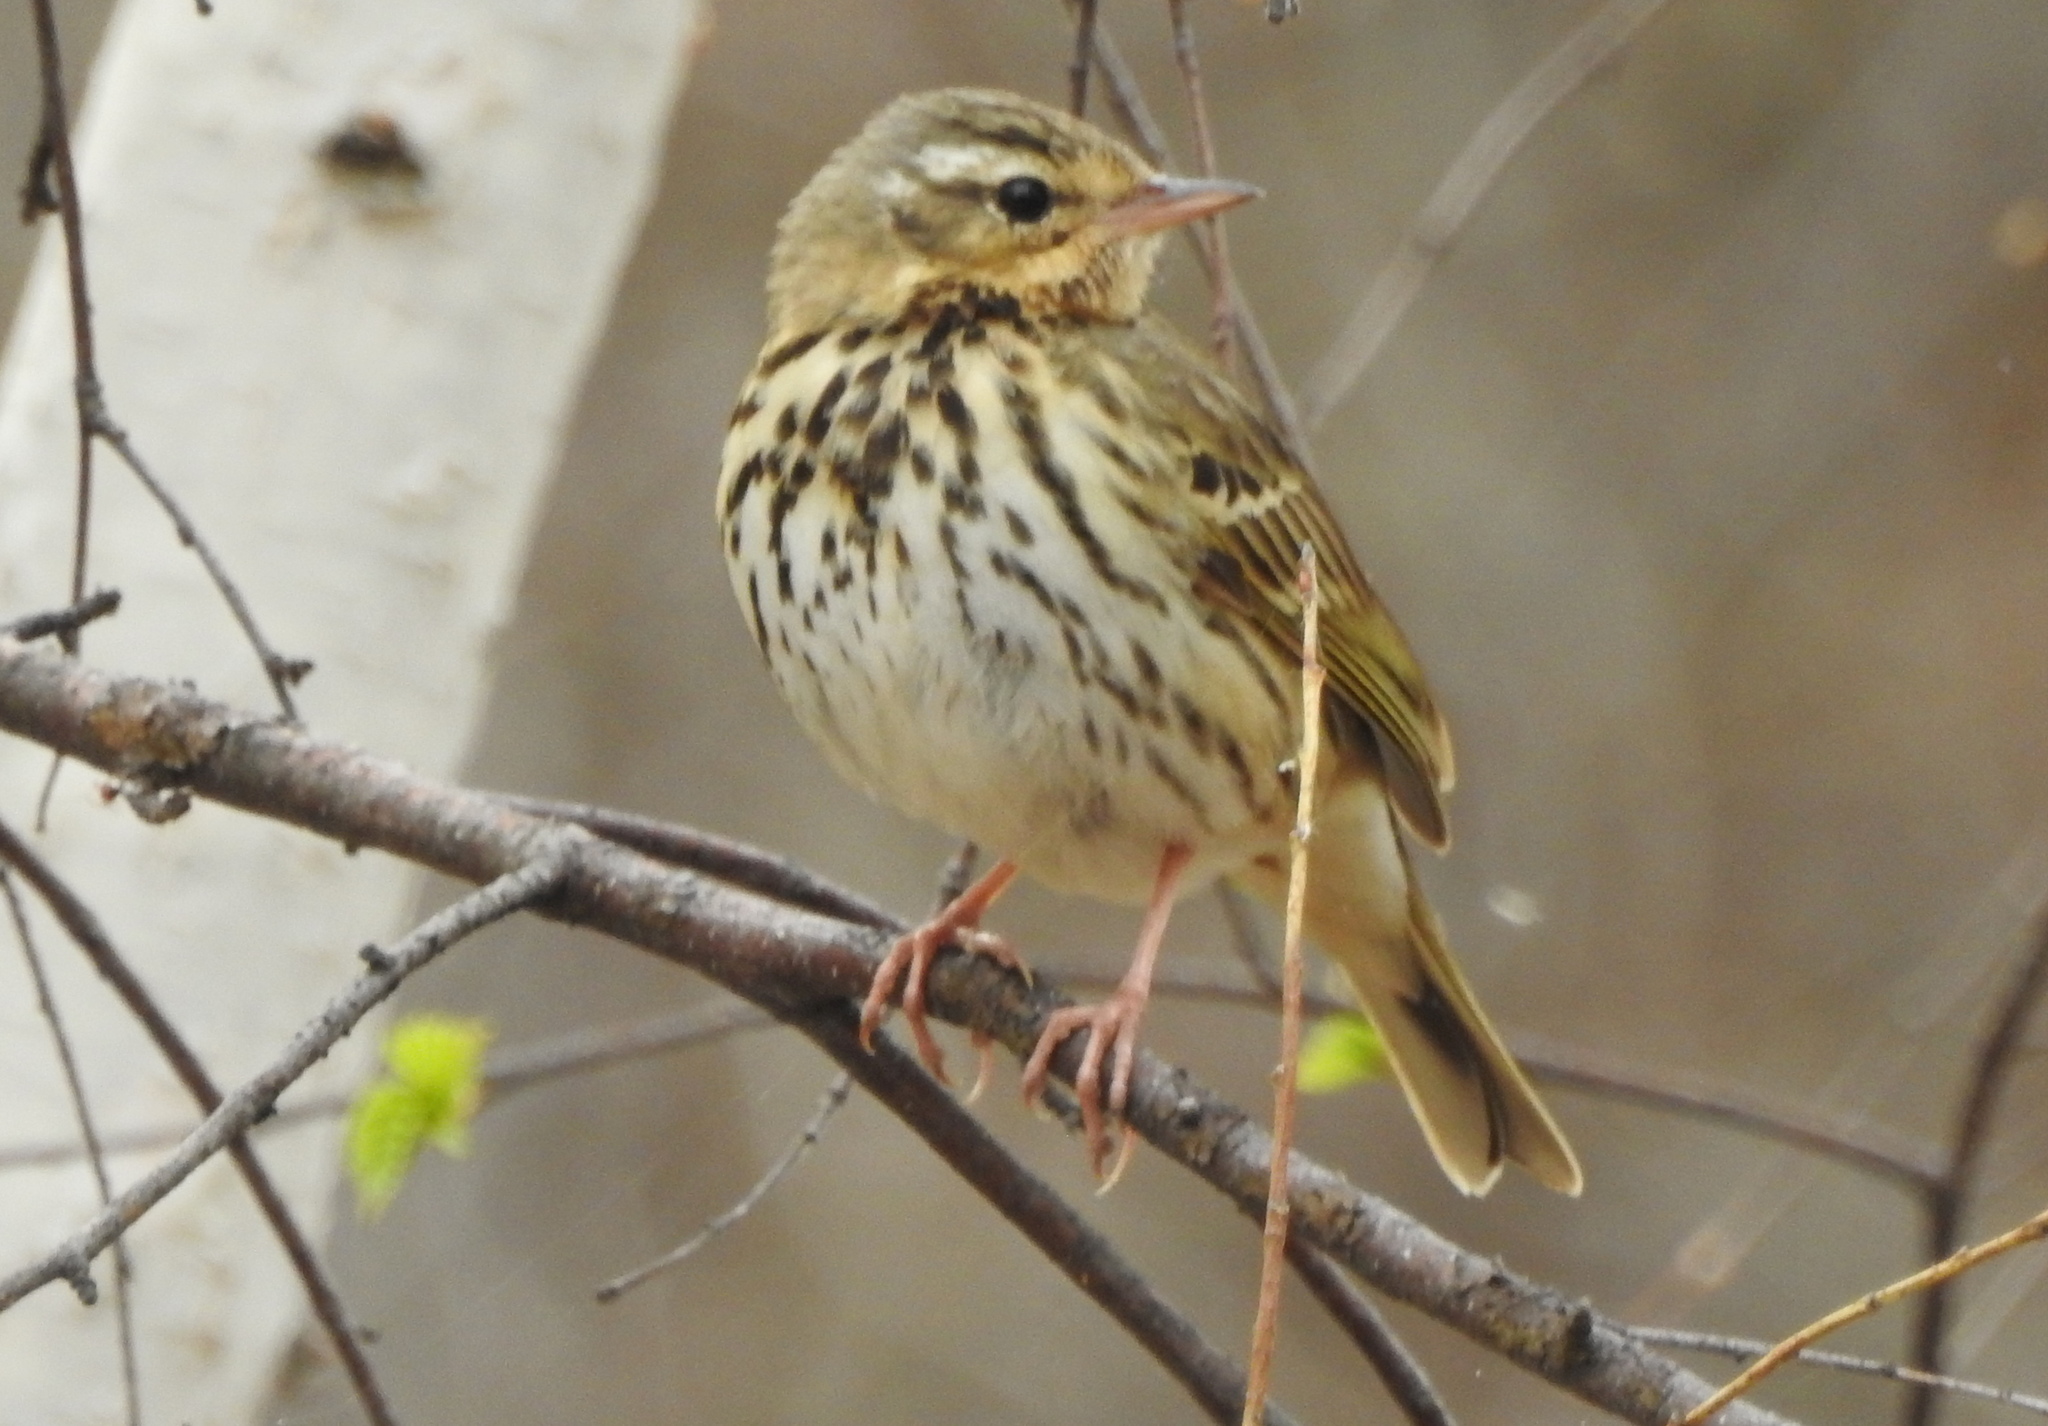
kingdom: Animalia
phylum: Chordata
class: Aves
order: Passeriformes
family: Motacillidae
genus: Anthus
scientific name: Anthus hodgsoni
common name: Olive-backed pipit
